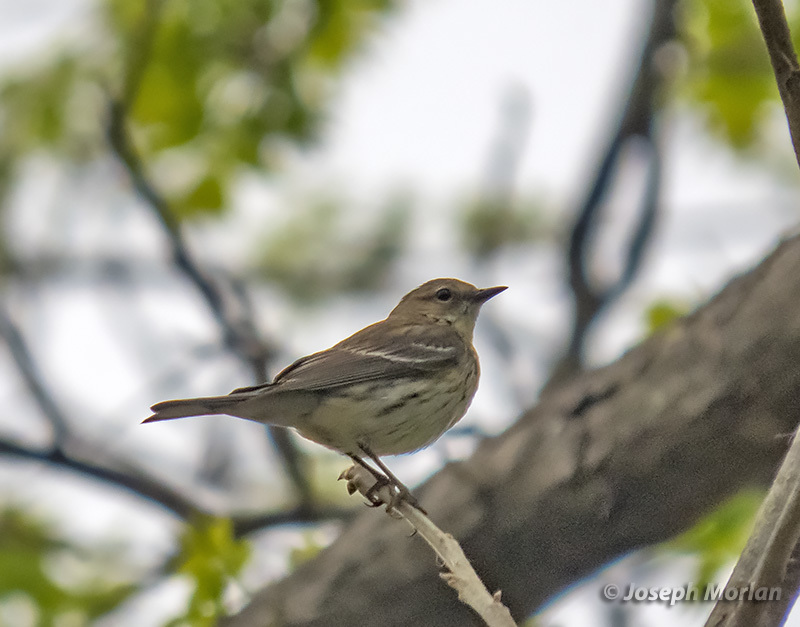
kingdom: Animalia
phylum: Chordata
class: Aves
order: Passeriformes
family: Parulidae
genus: Setophaga
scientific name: Setophaga coronata
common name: Myrtle warbler
